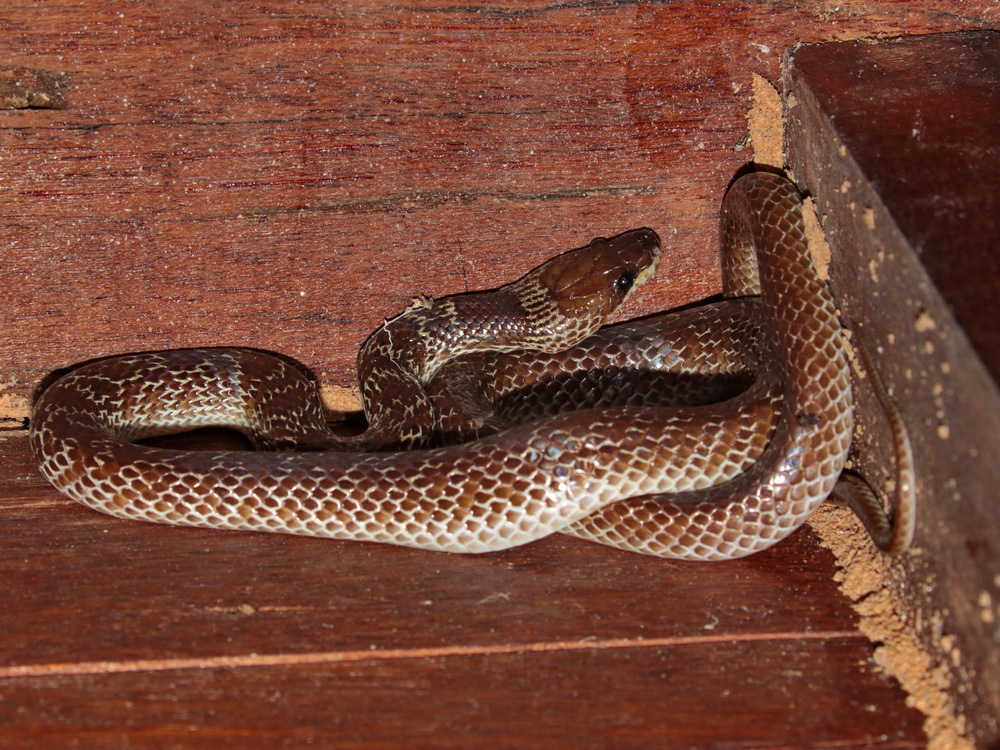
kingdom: Animalia
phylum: Chordata
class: Squamata
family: Colubridae
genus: Lycodon
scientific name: Lycodon capucinus
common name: Common wold snake/house snake
